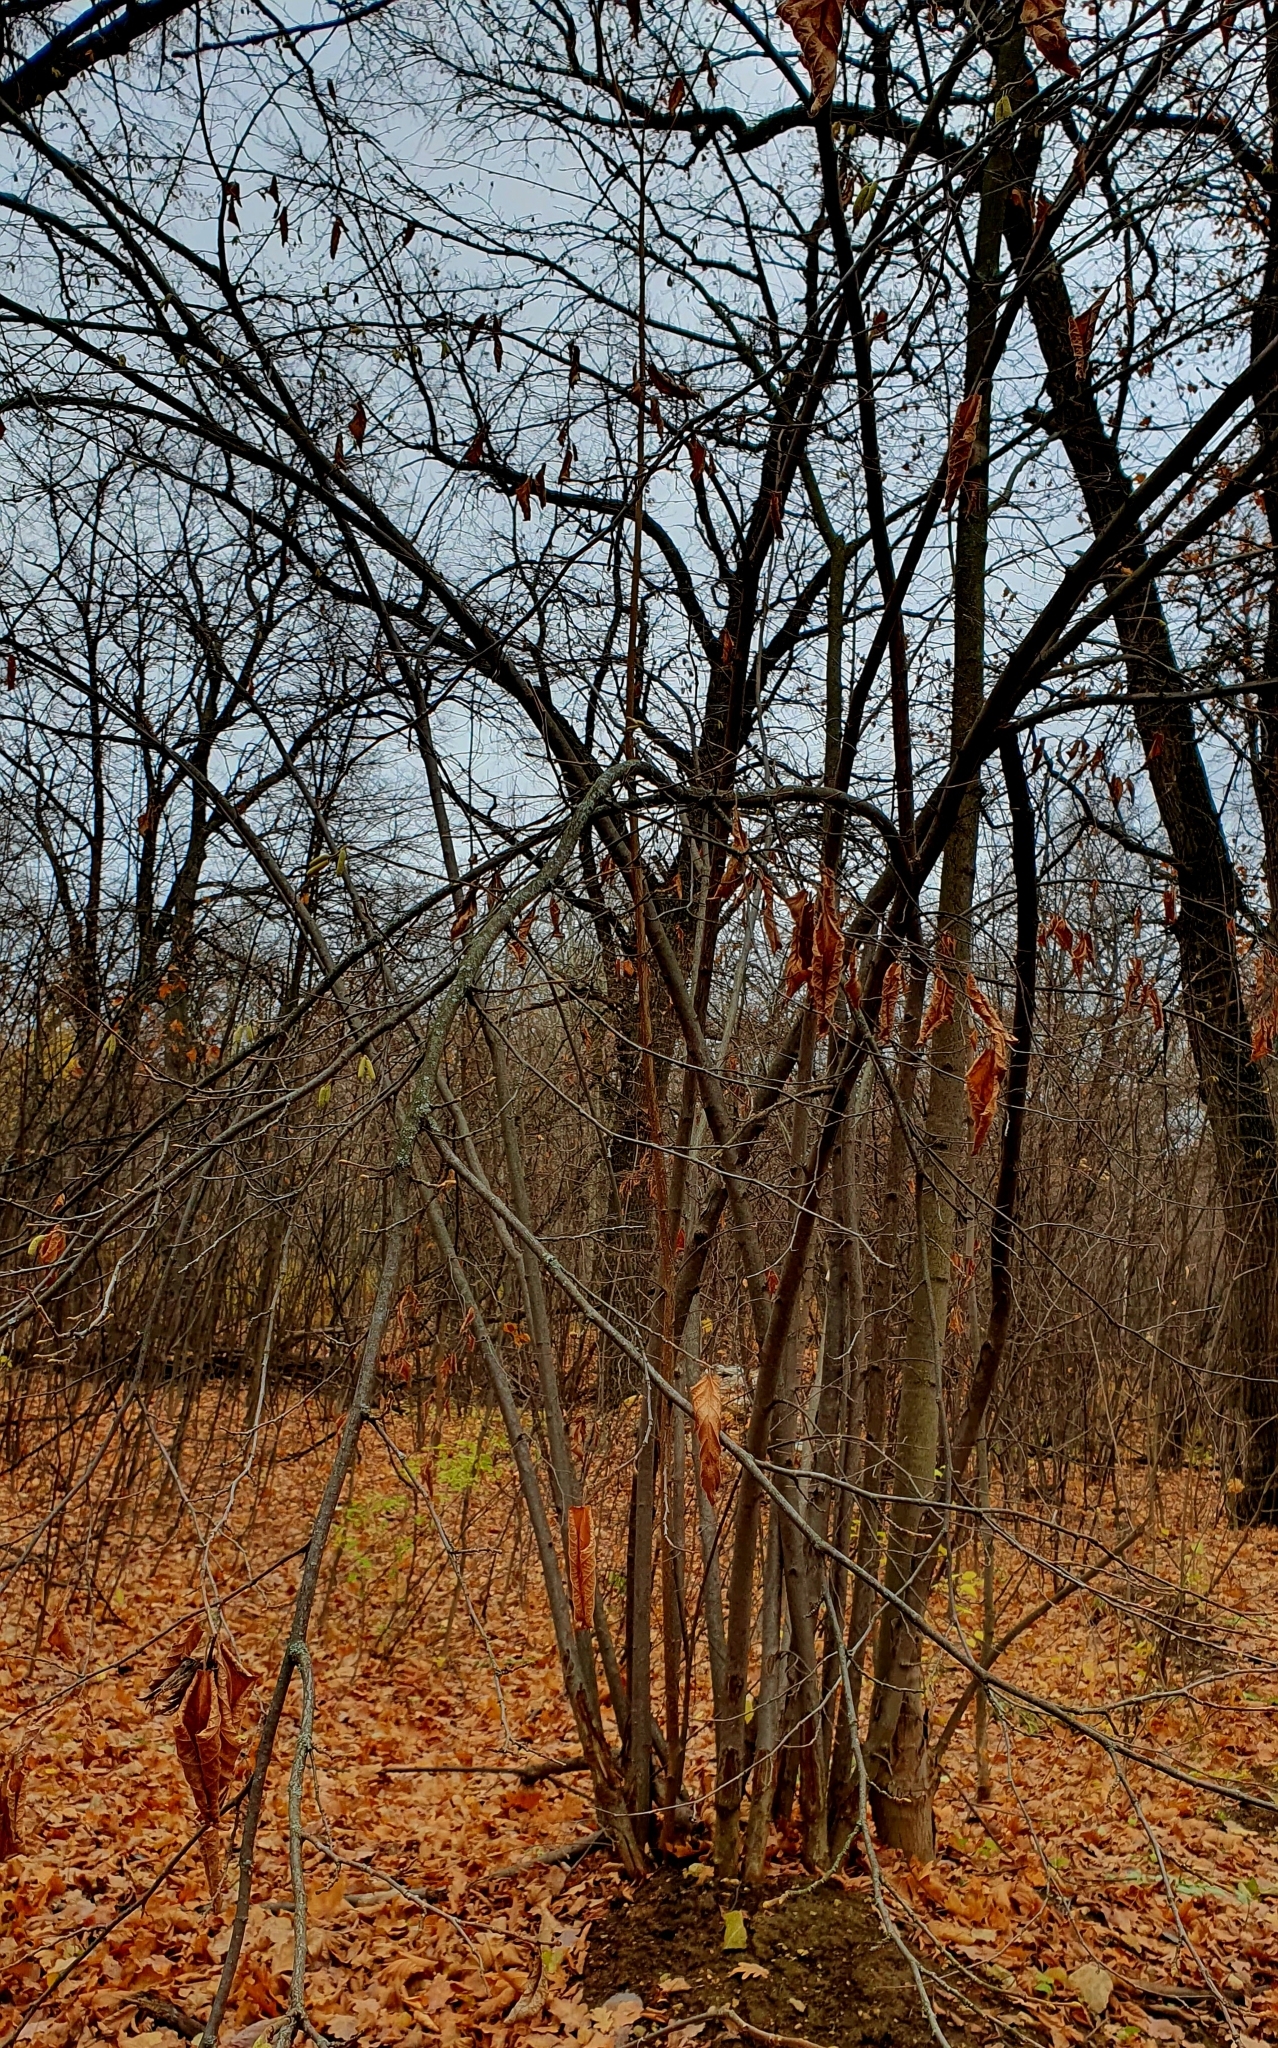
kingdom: Plantae
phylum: Tracheophyta
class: Magnoliopsida
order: Fagales
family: Betulaceae
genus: Corylus
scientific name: Corylus avellana
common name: European hazel
